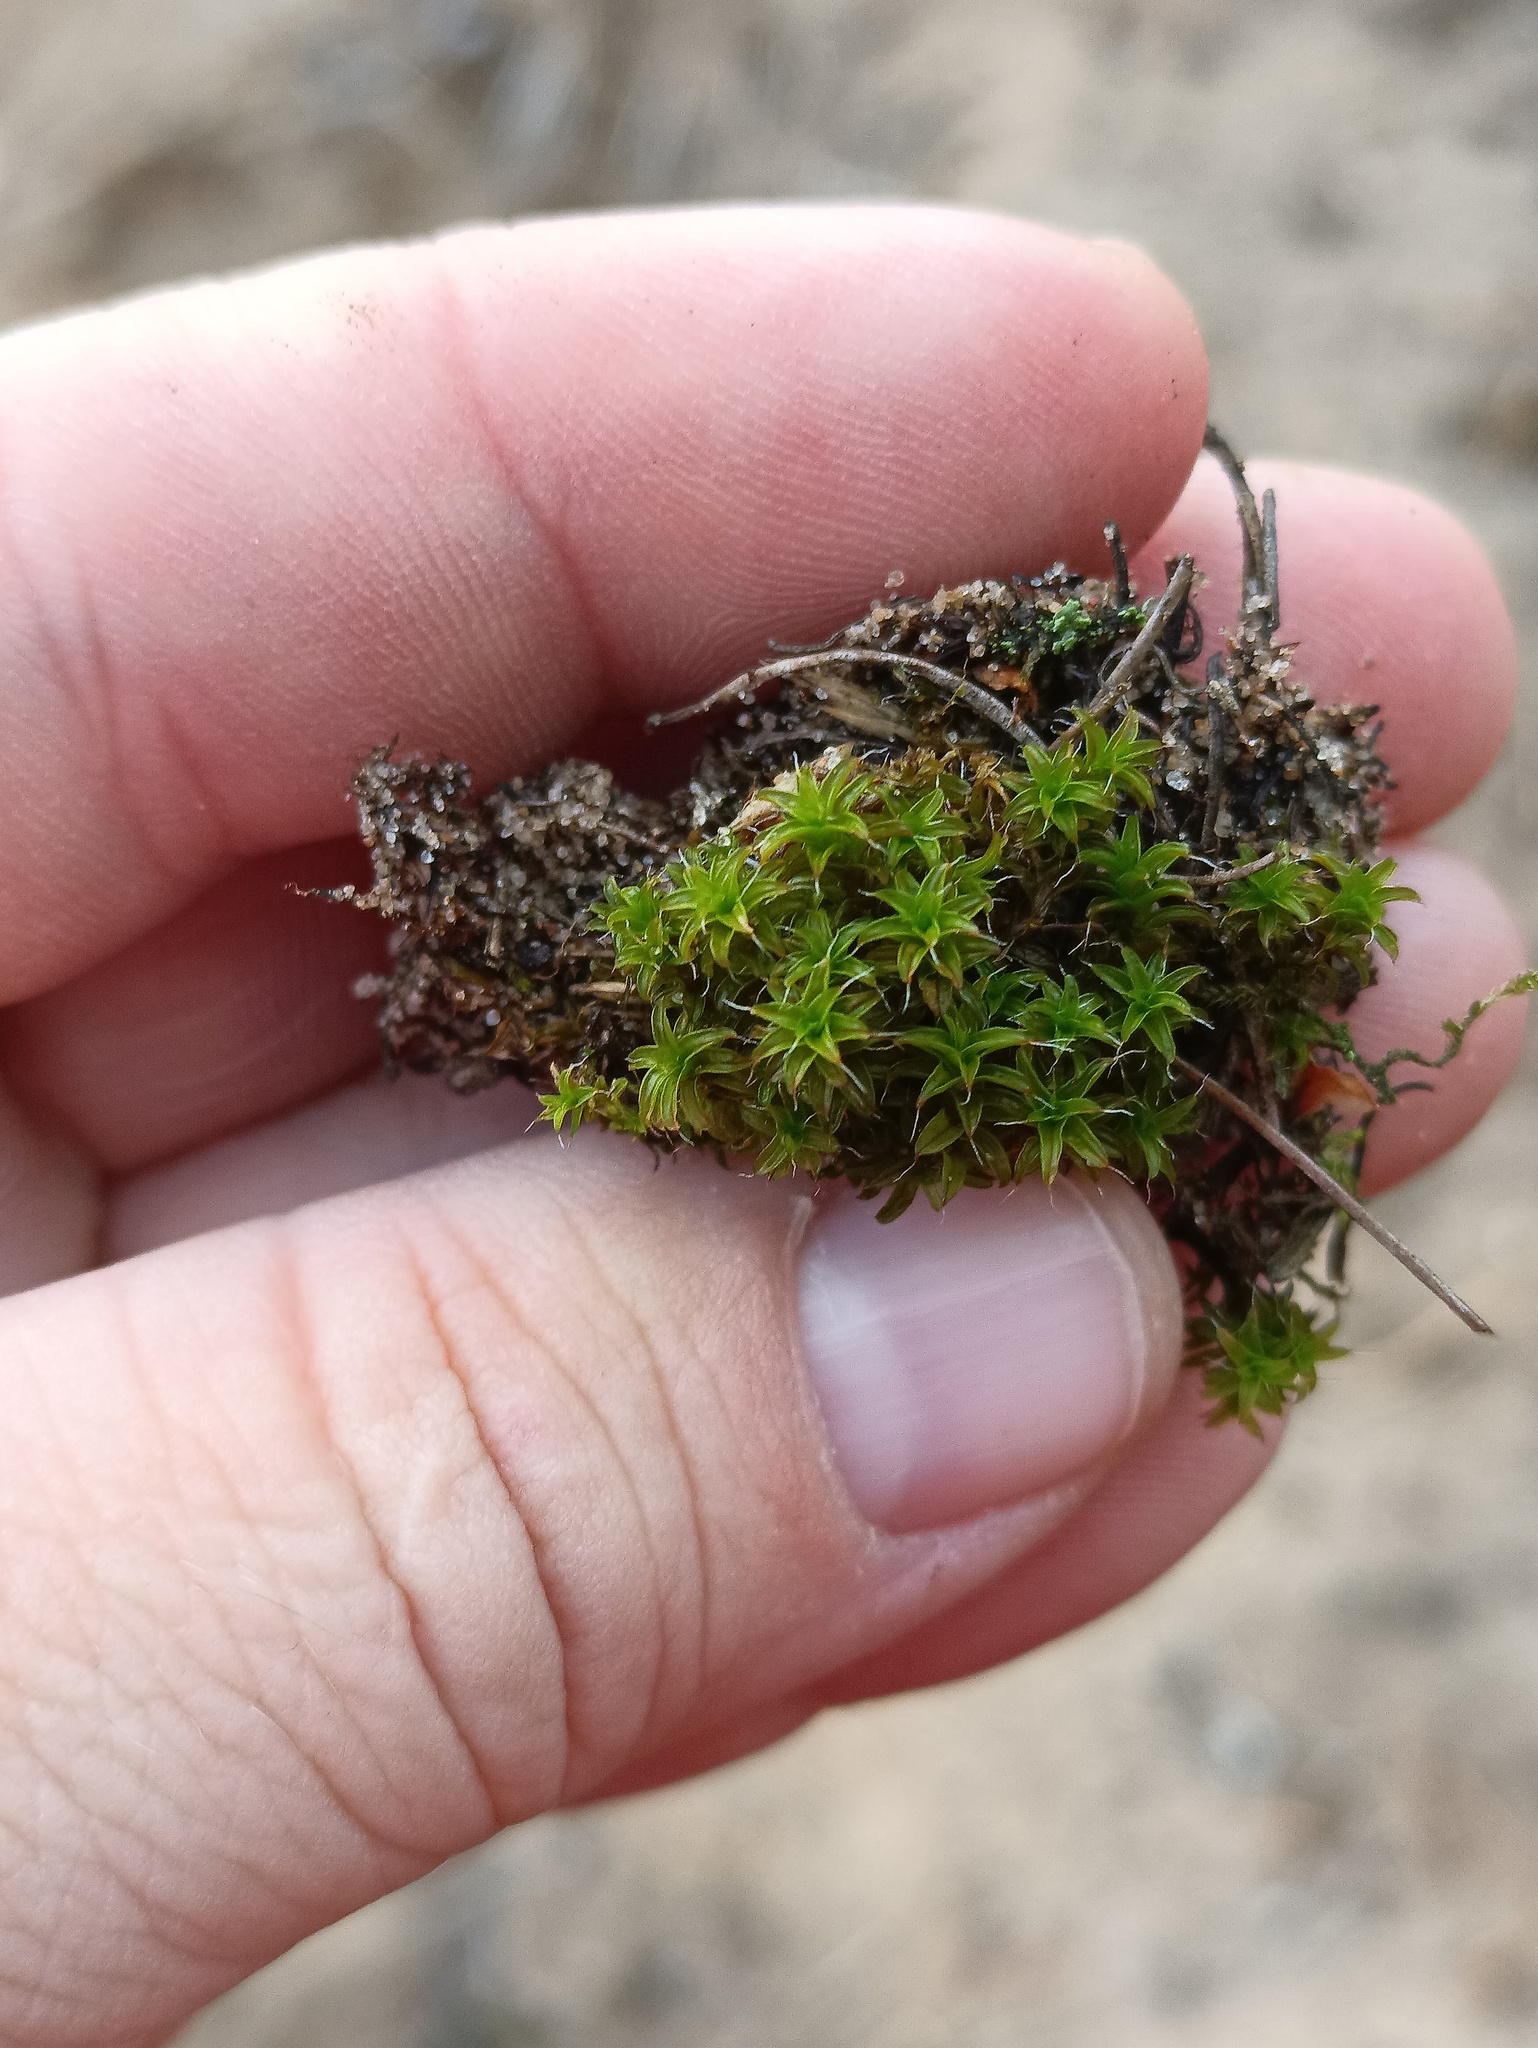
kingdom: Plantae
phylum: Bryophyta
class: Bryopsida
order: Pottiales
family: Pottiaceae
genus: Syntrichia
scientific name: Syntrichia ruralis
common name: Sidewalk screw moss
